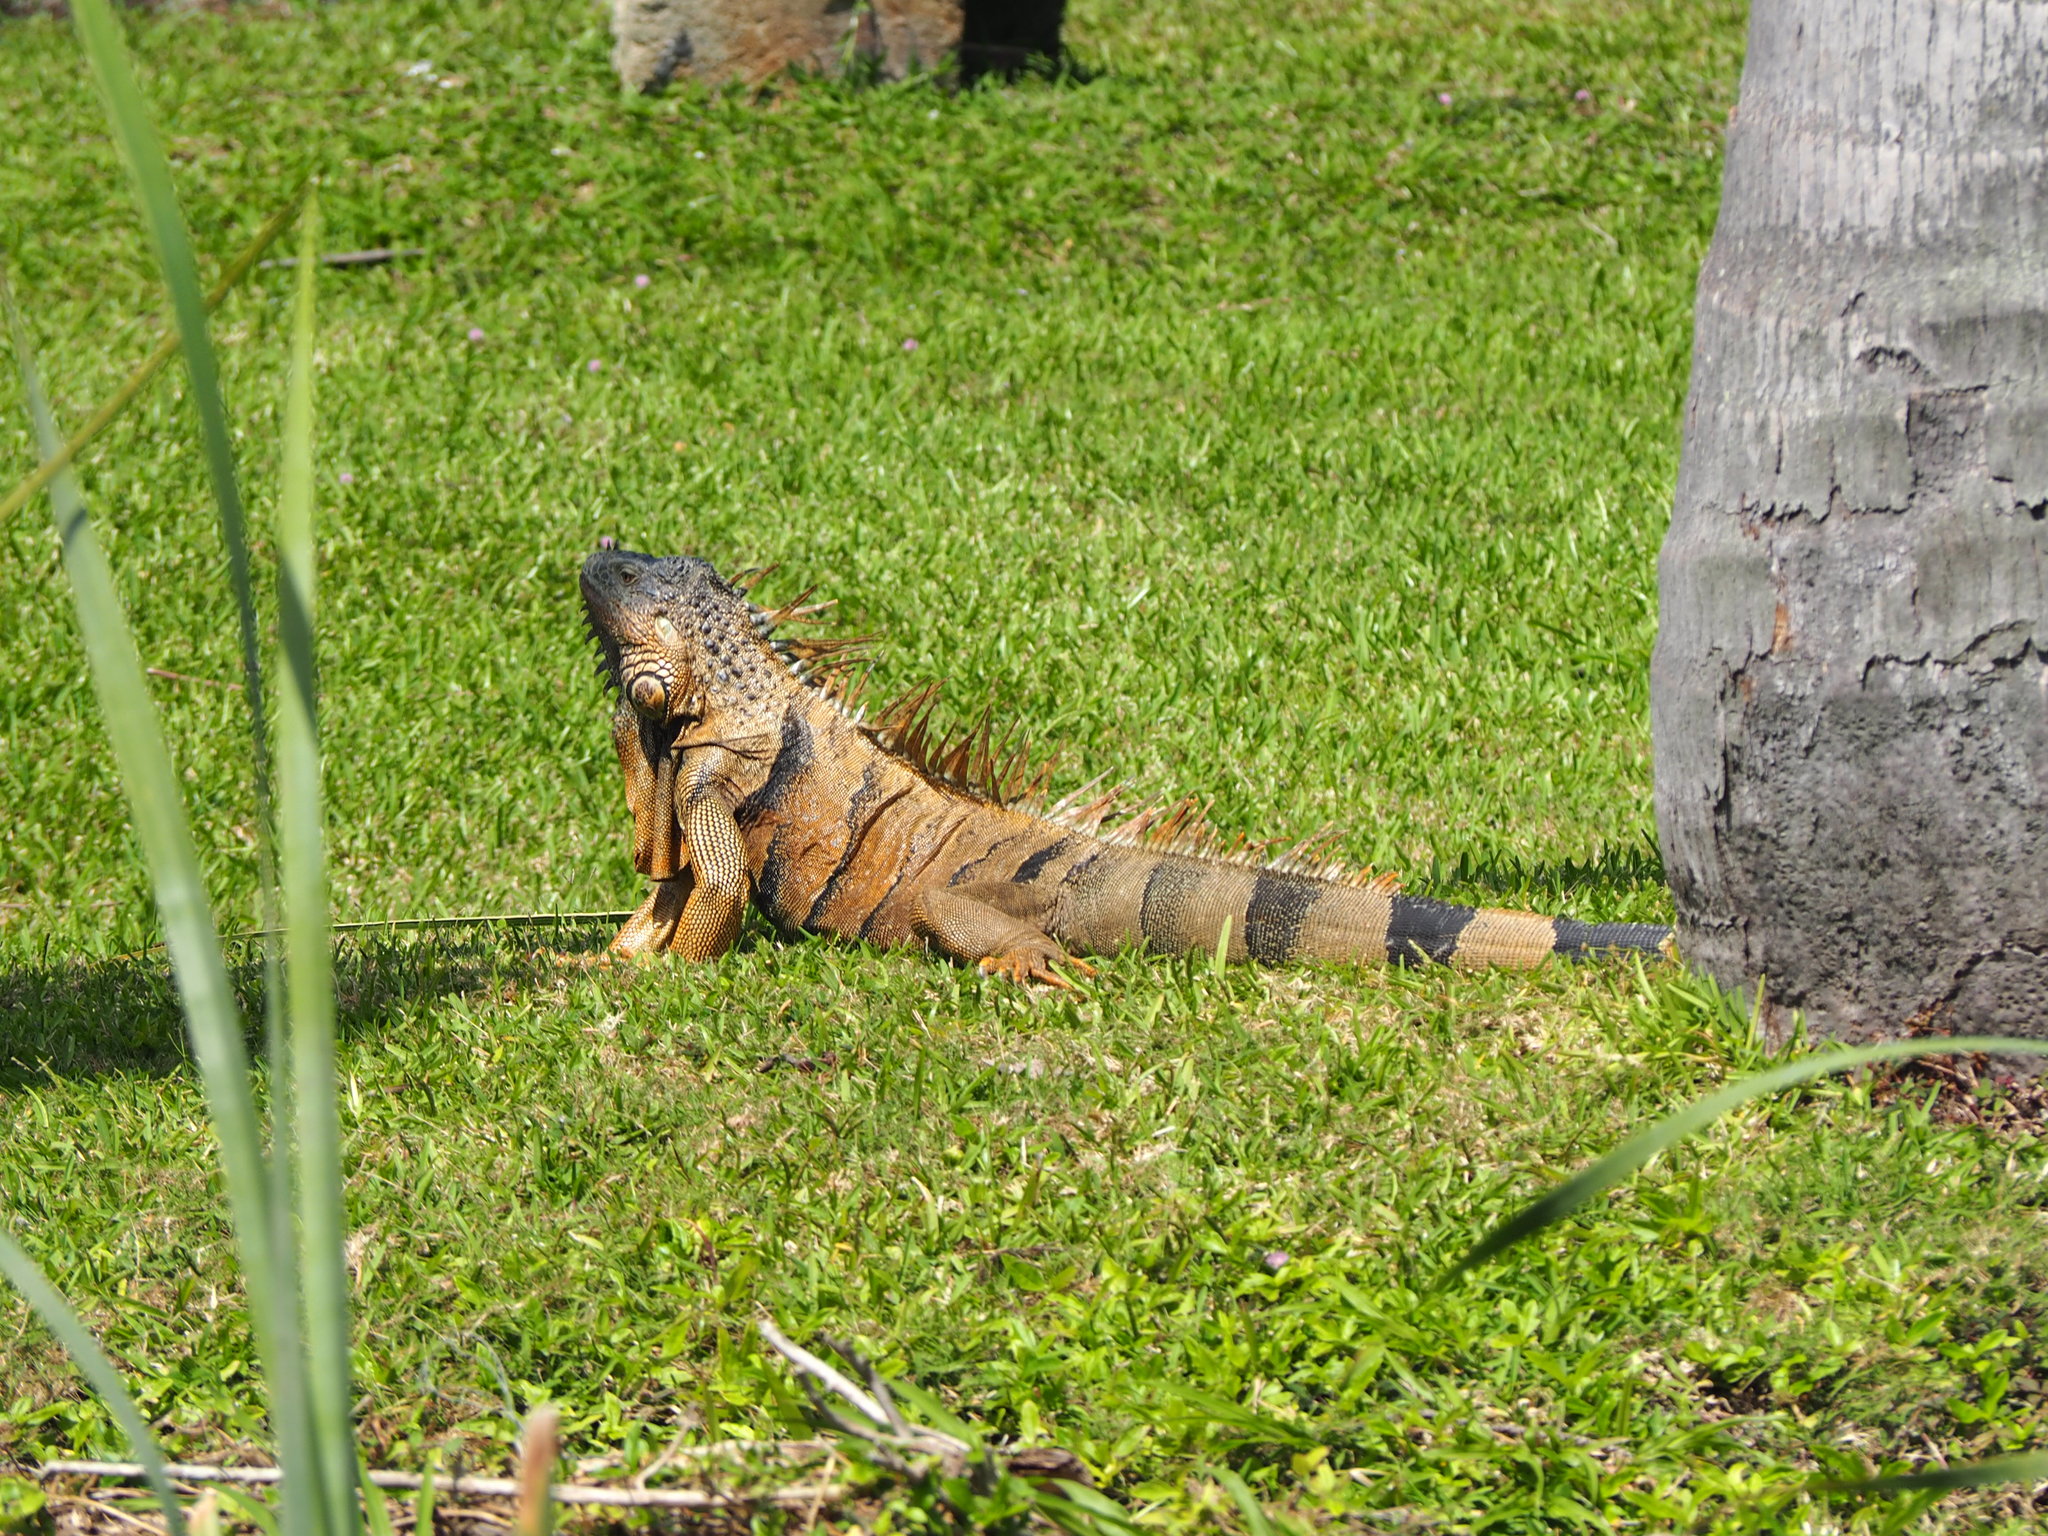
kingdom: Animalia
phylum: Chordata
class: Squamata
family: Iguanidae
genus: Iguana
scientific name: Iguana iguana
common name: Green iguana
